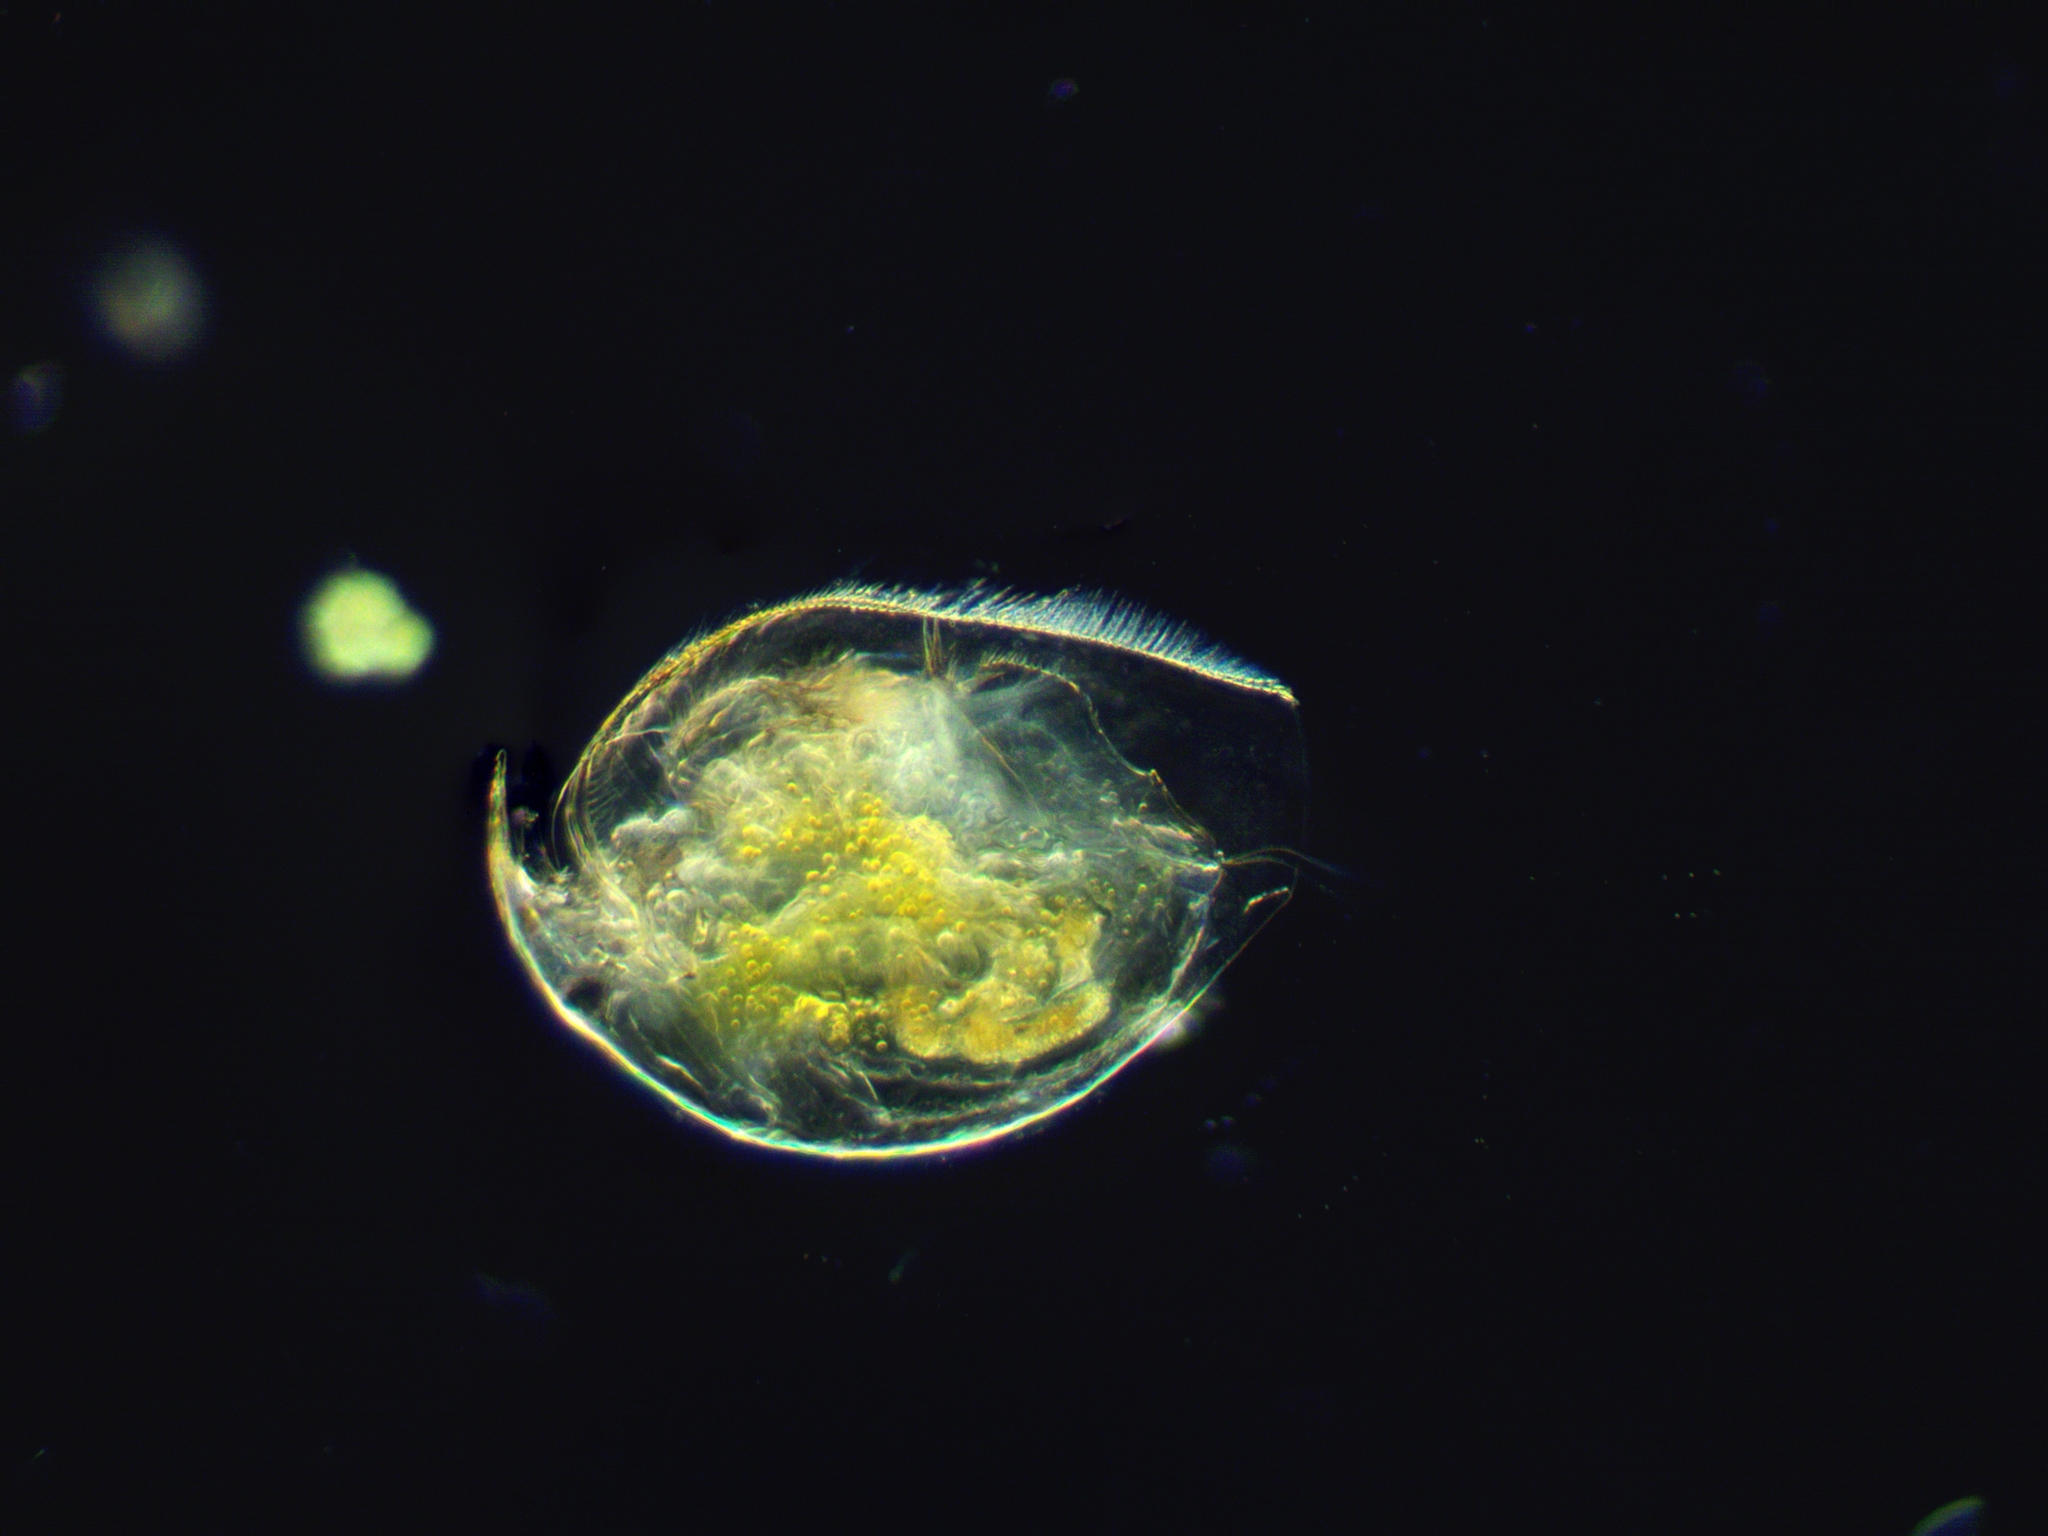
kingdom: Animalia
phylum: Arthropoda
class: Branchiopoda
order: Diplostraca
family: Chydoridae
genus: Pleuroxus
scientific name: Pleuroxus aduncus
